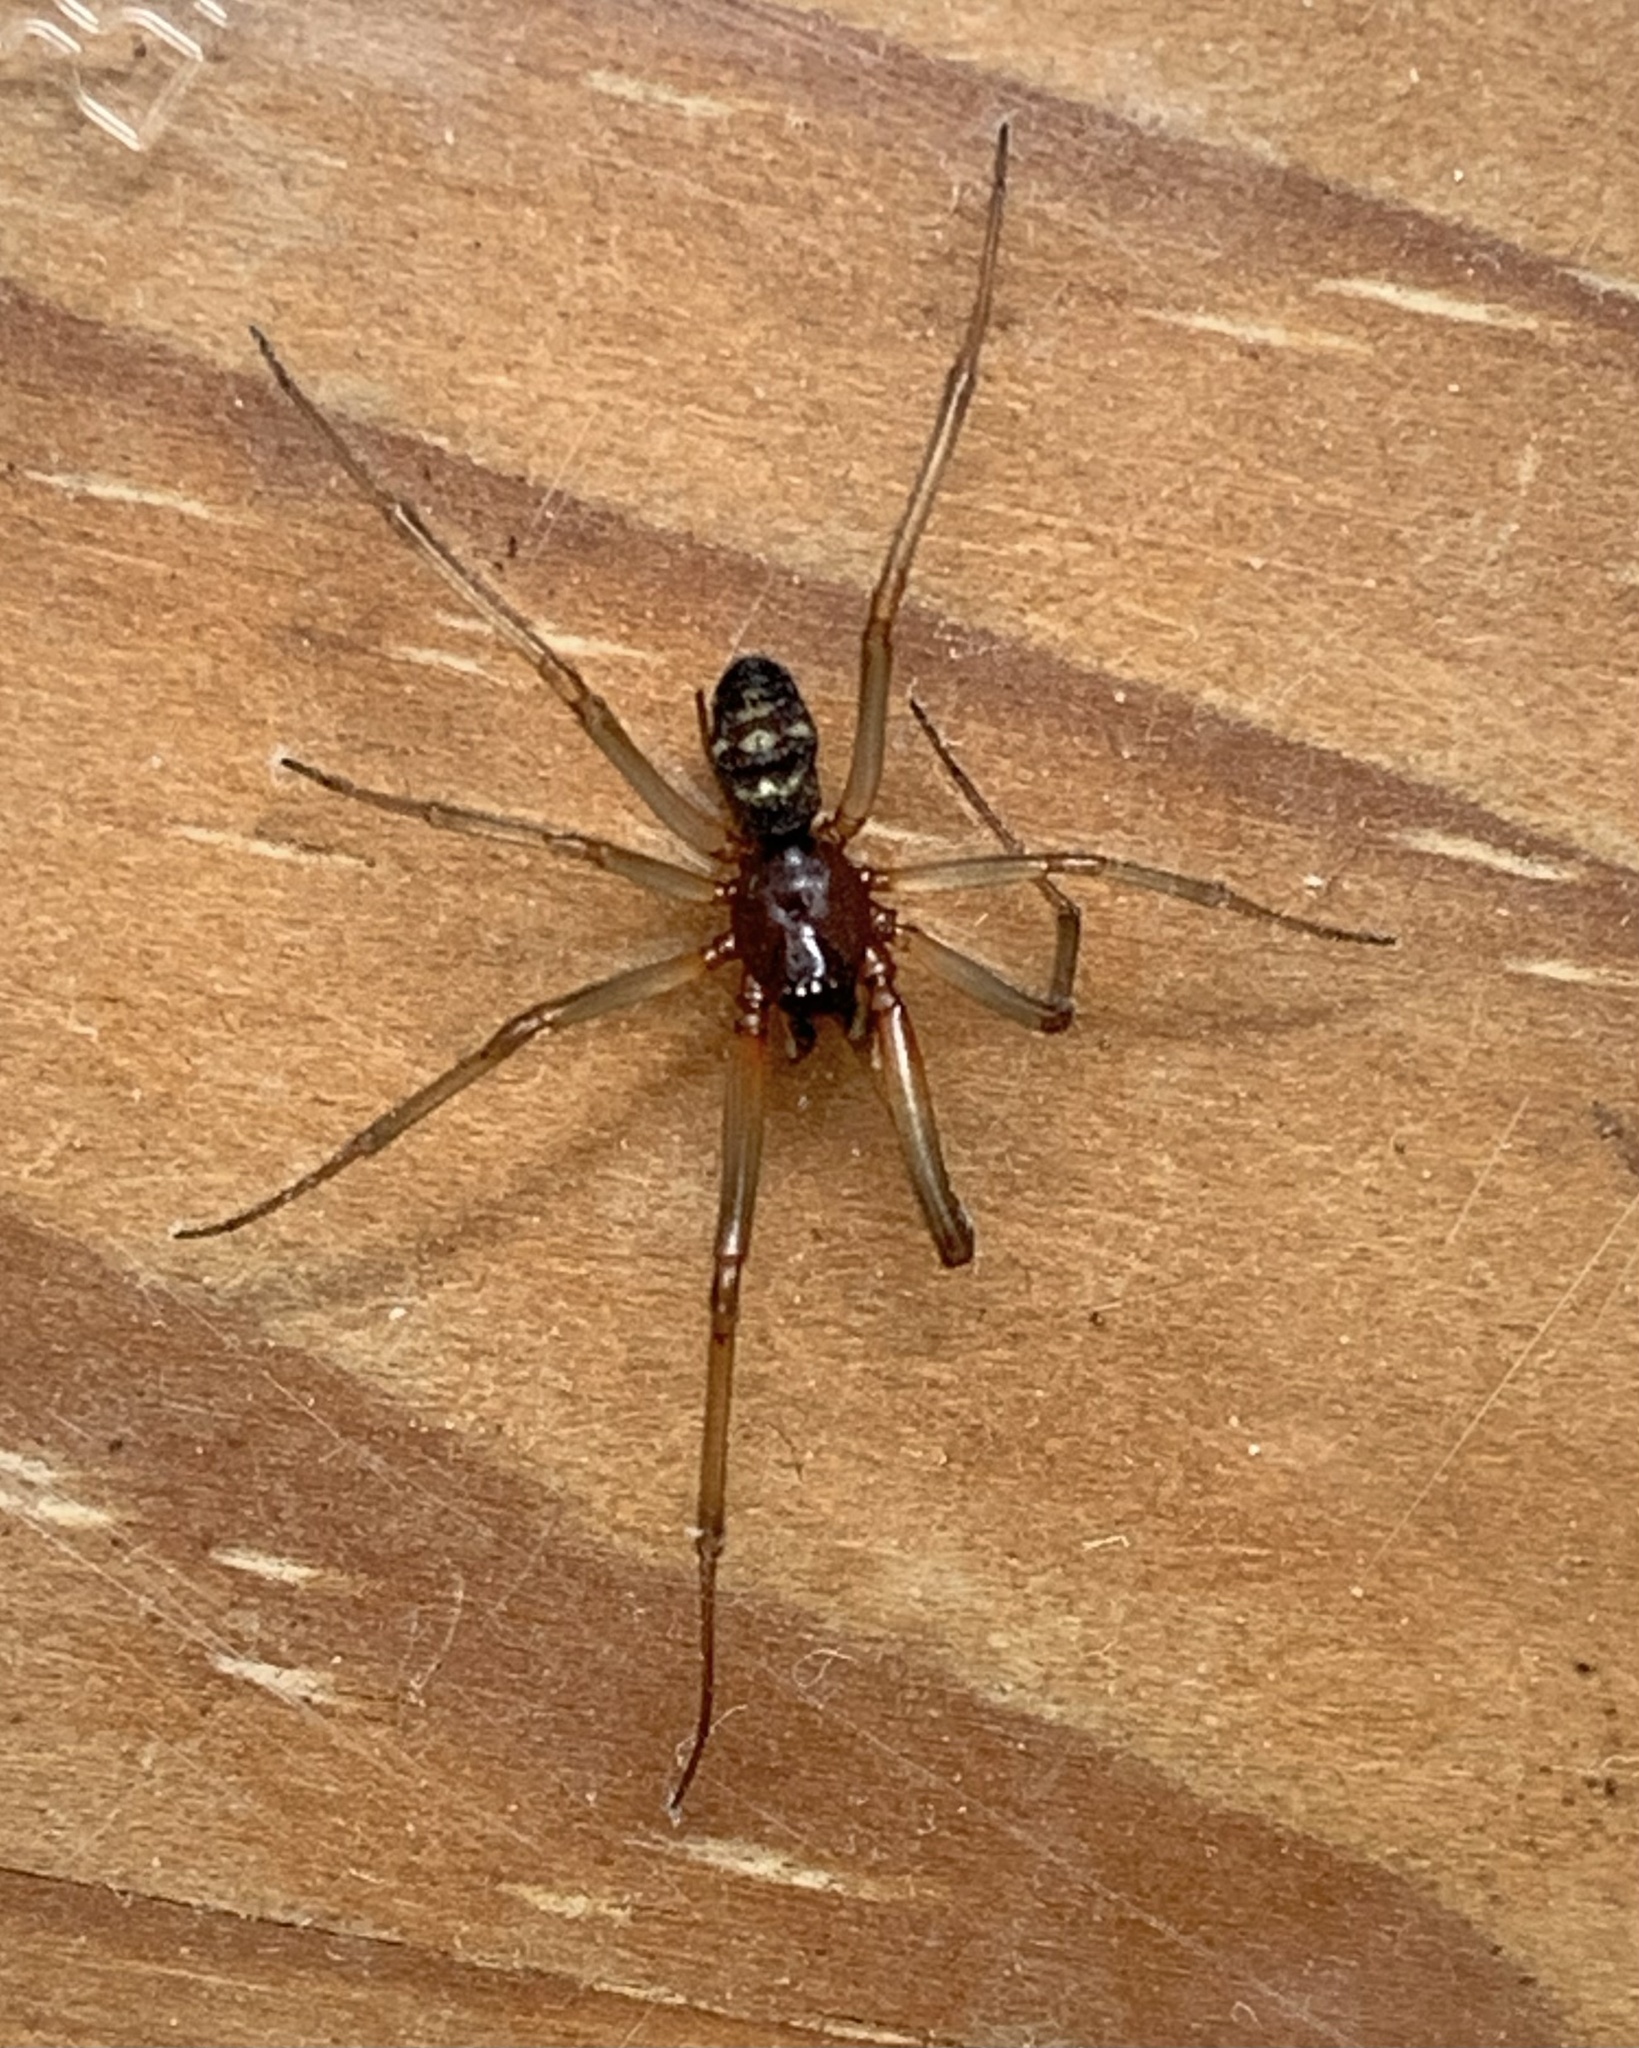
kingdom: Animalia
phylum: Arthropoda
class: Arachnida
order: Araneae
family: Theridiidae
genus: Steatoda
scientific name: Steatoda grossa
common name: False black widow
